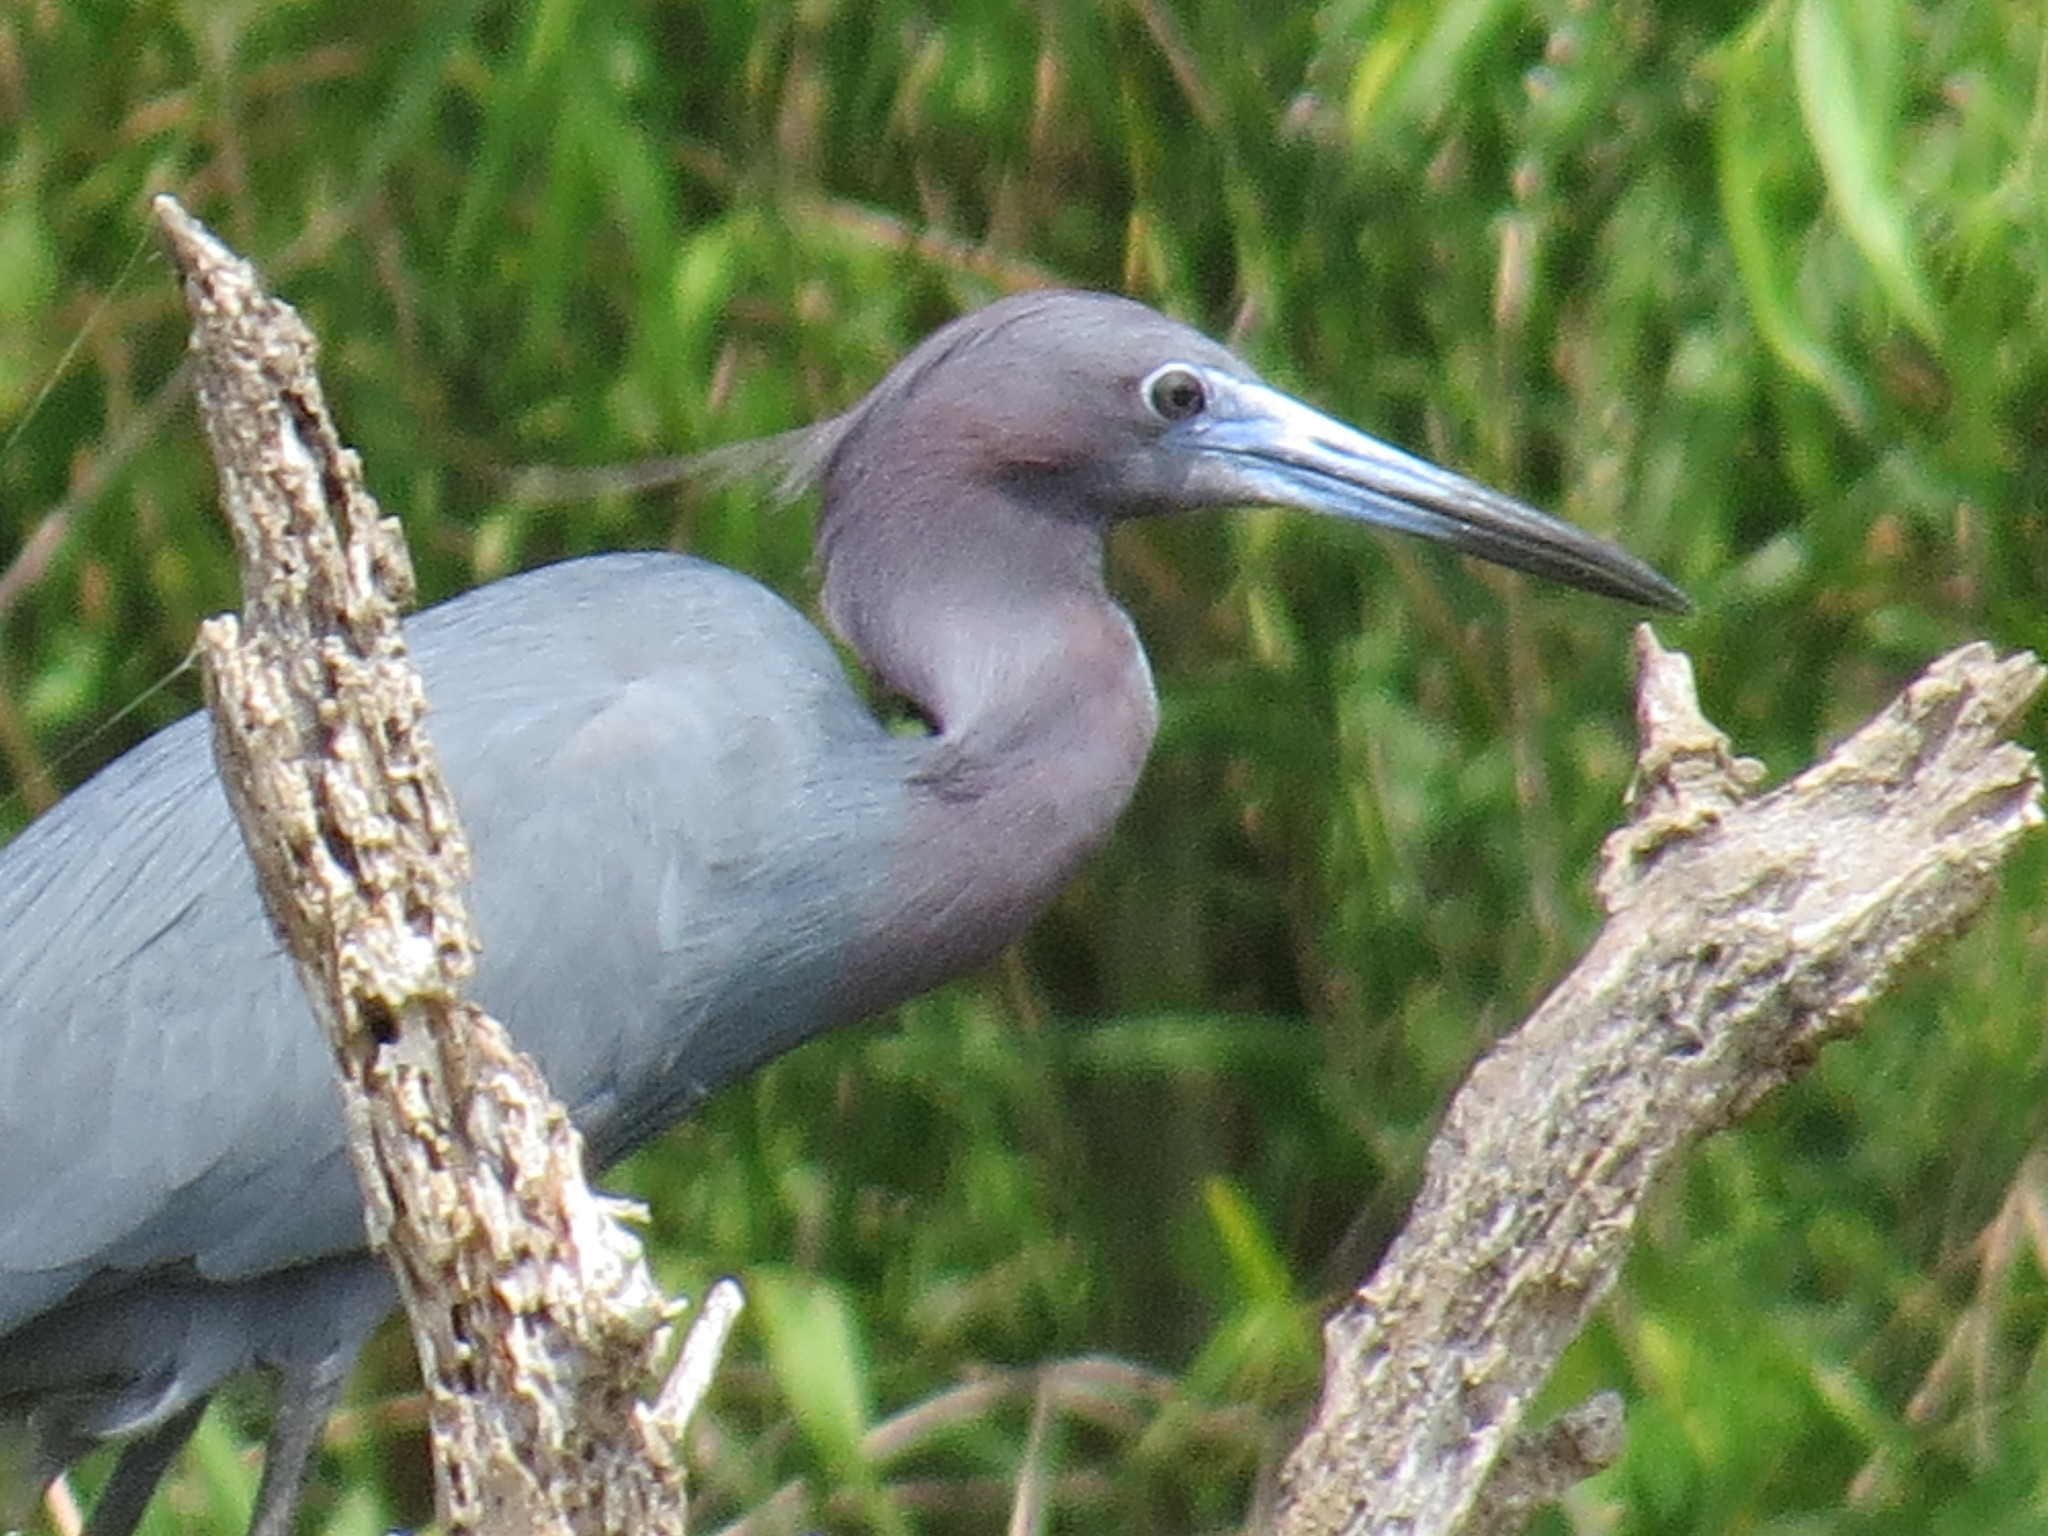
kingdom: Animalia
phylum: Chordata
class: Aves
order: Pelecaniformes
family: Ardeidae
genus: Egretta
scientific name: Egretta caerulea
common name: Little blue heron
